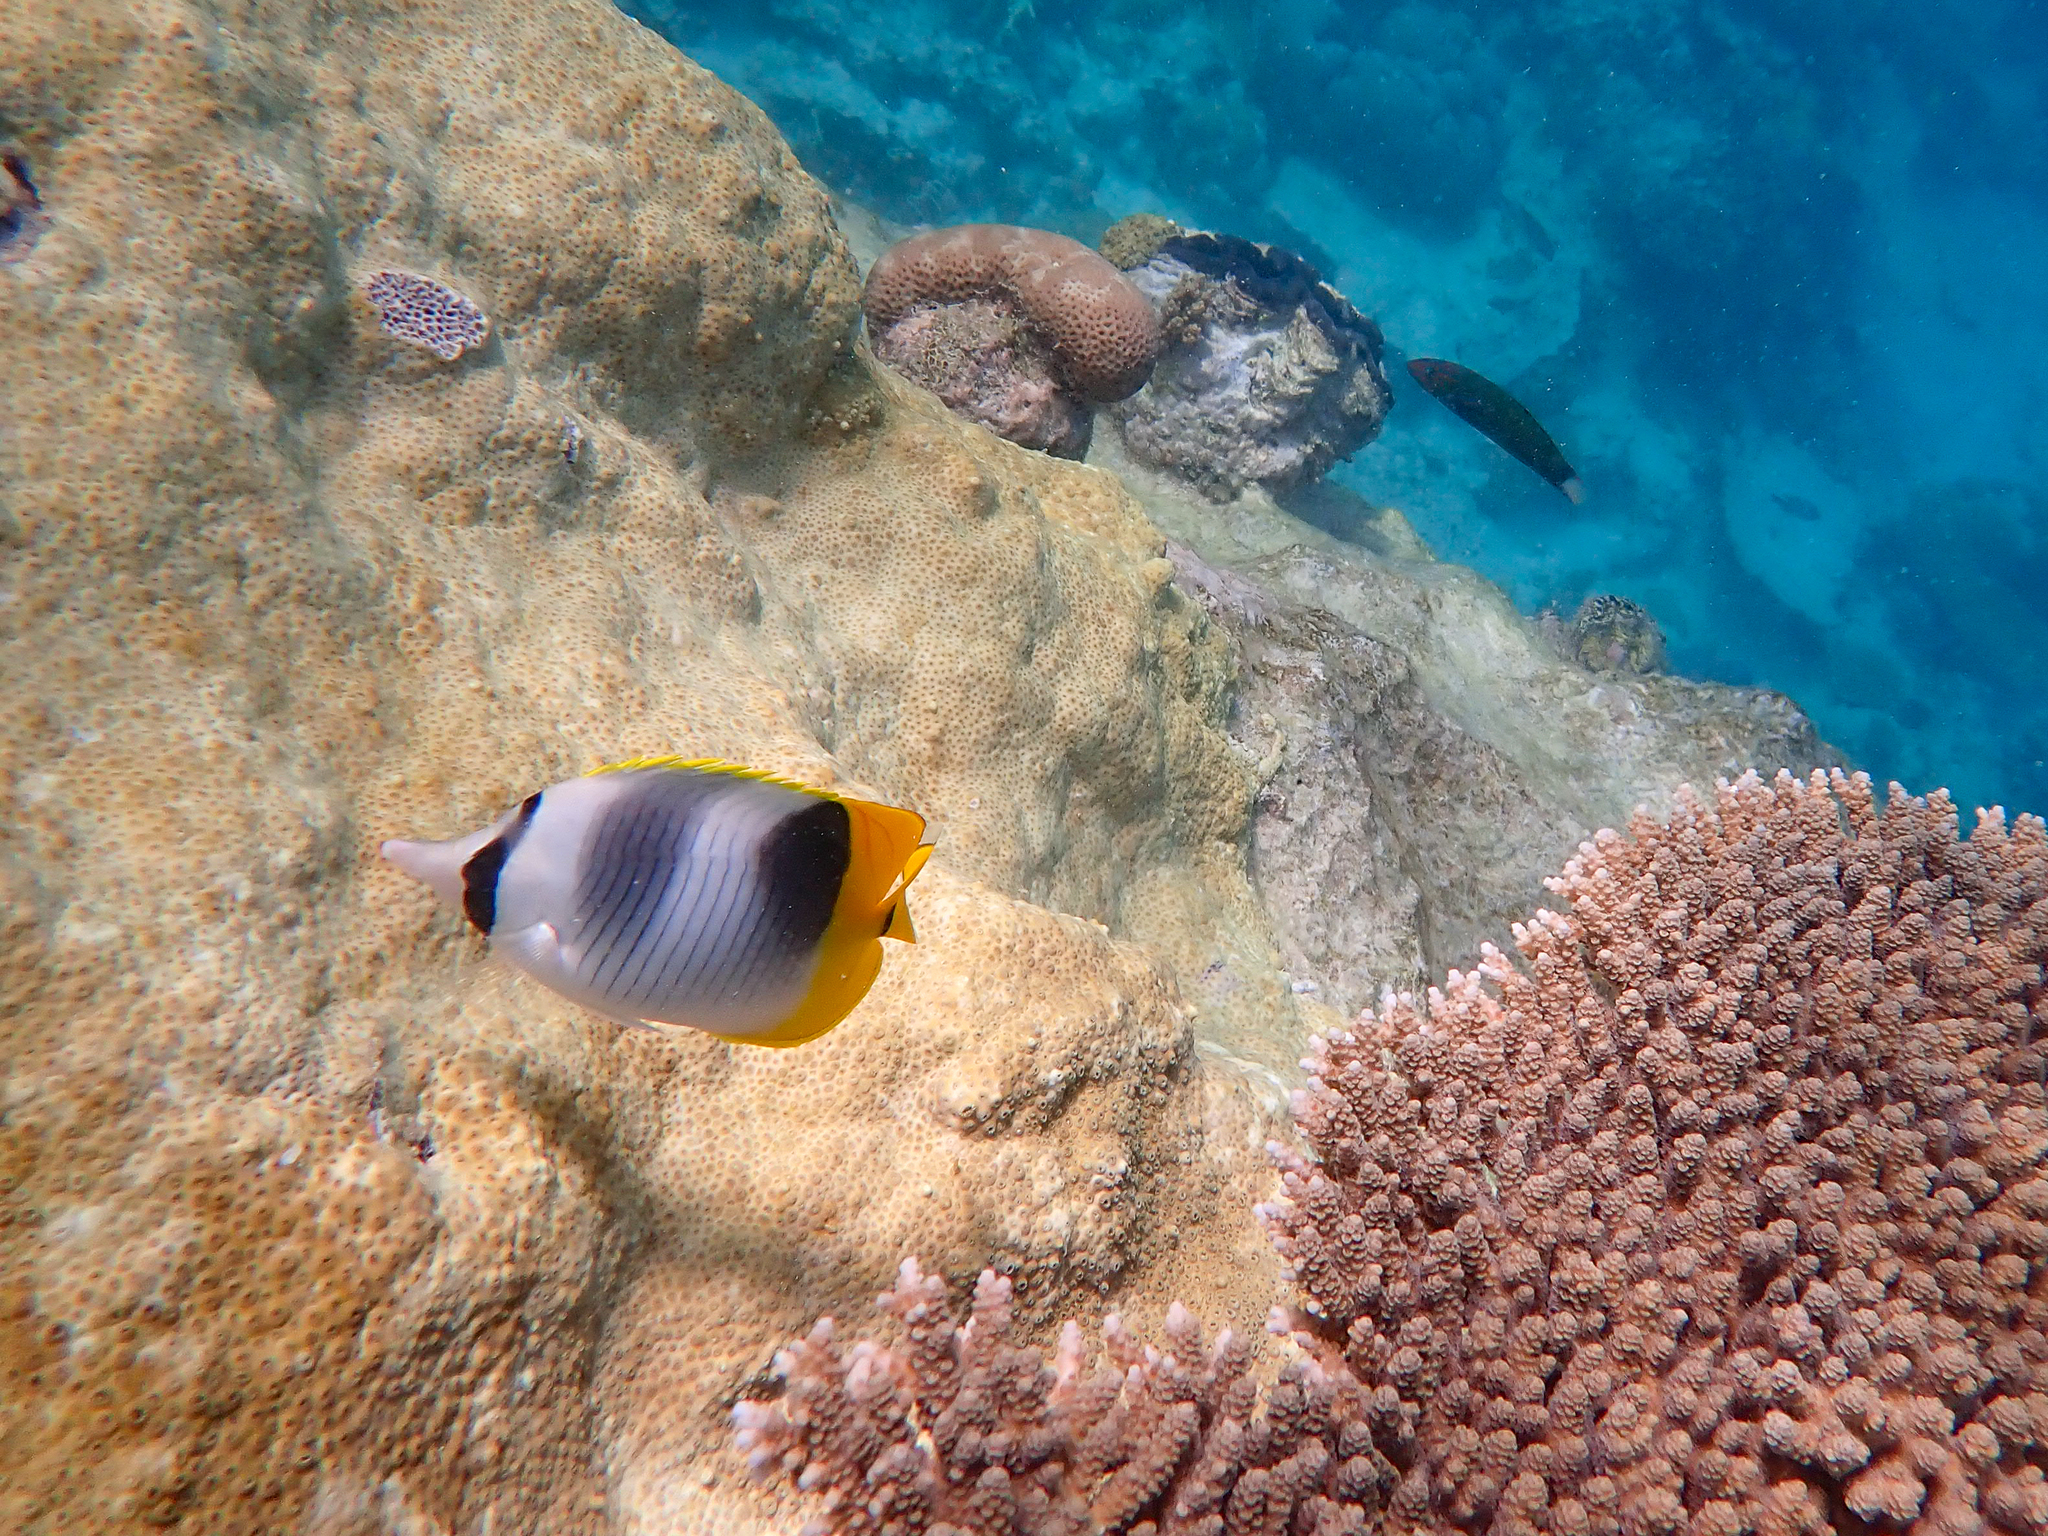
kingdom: Animalia
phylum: Chordata
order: Perciformes
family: Chaetodontidae
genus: Chaetodon
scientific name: Chaetodon ulietensis
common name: Pacific double-saddle butterflyfish
